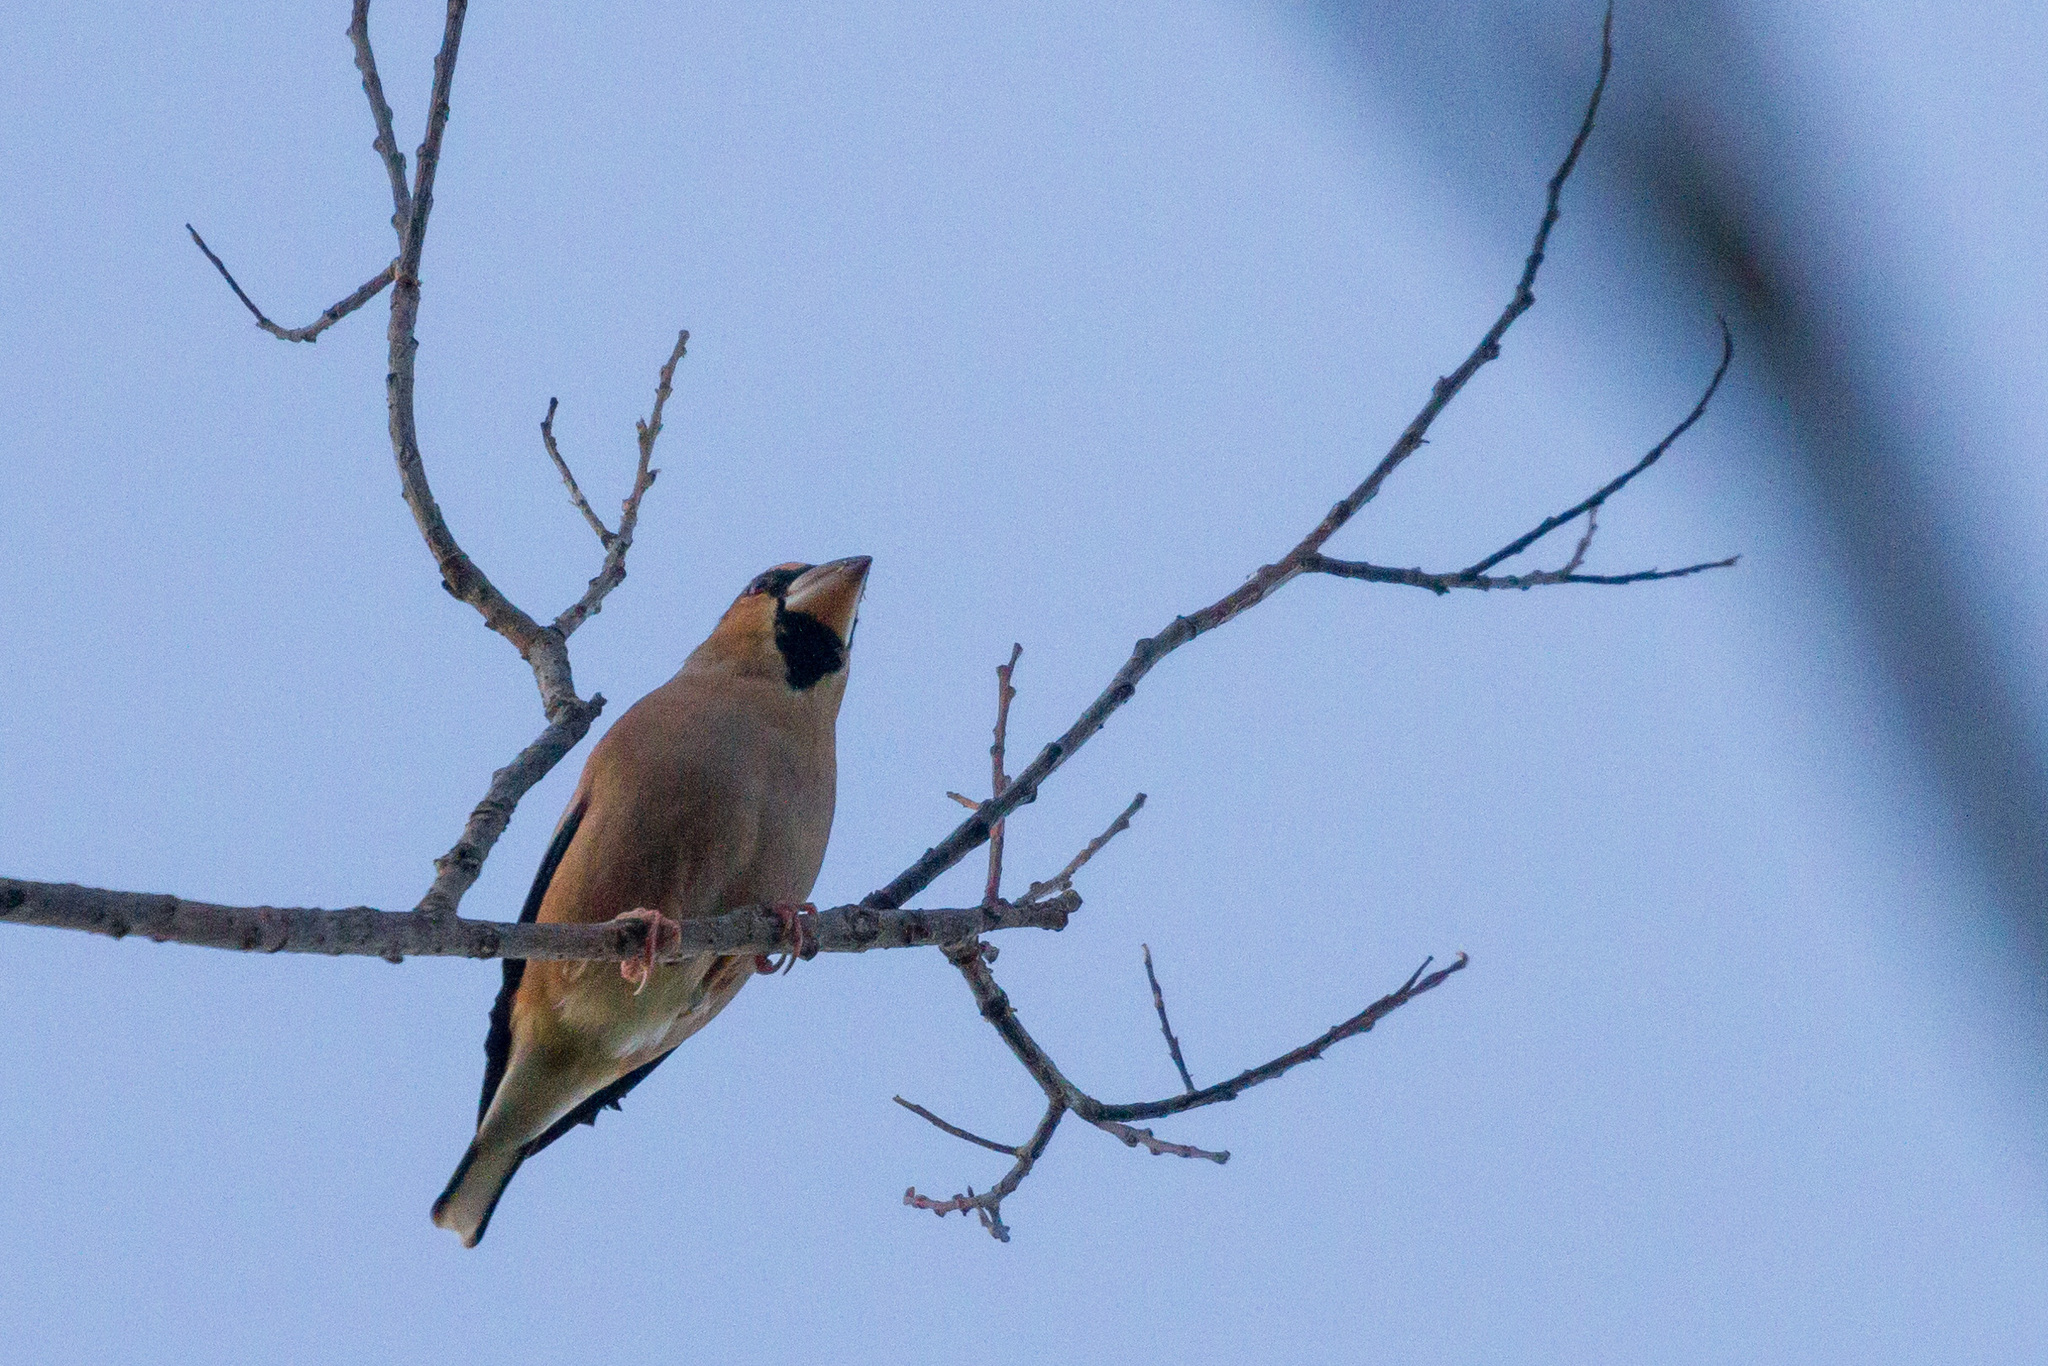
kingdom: Animalia
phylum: Chordata
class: Aves
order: Passeriformes
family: Fringillidae
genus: Coccothraustes
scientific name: Coccothraustes coccothraustes
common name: Hawfinch
